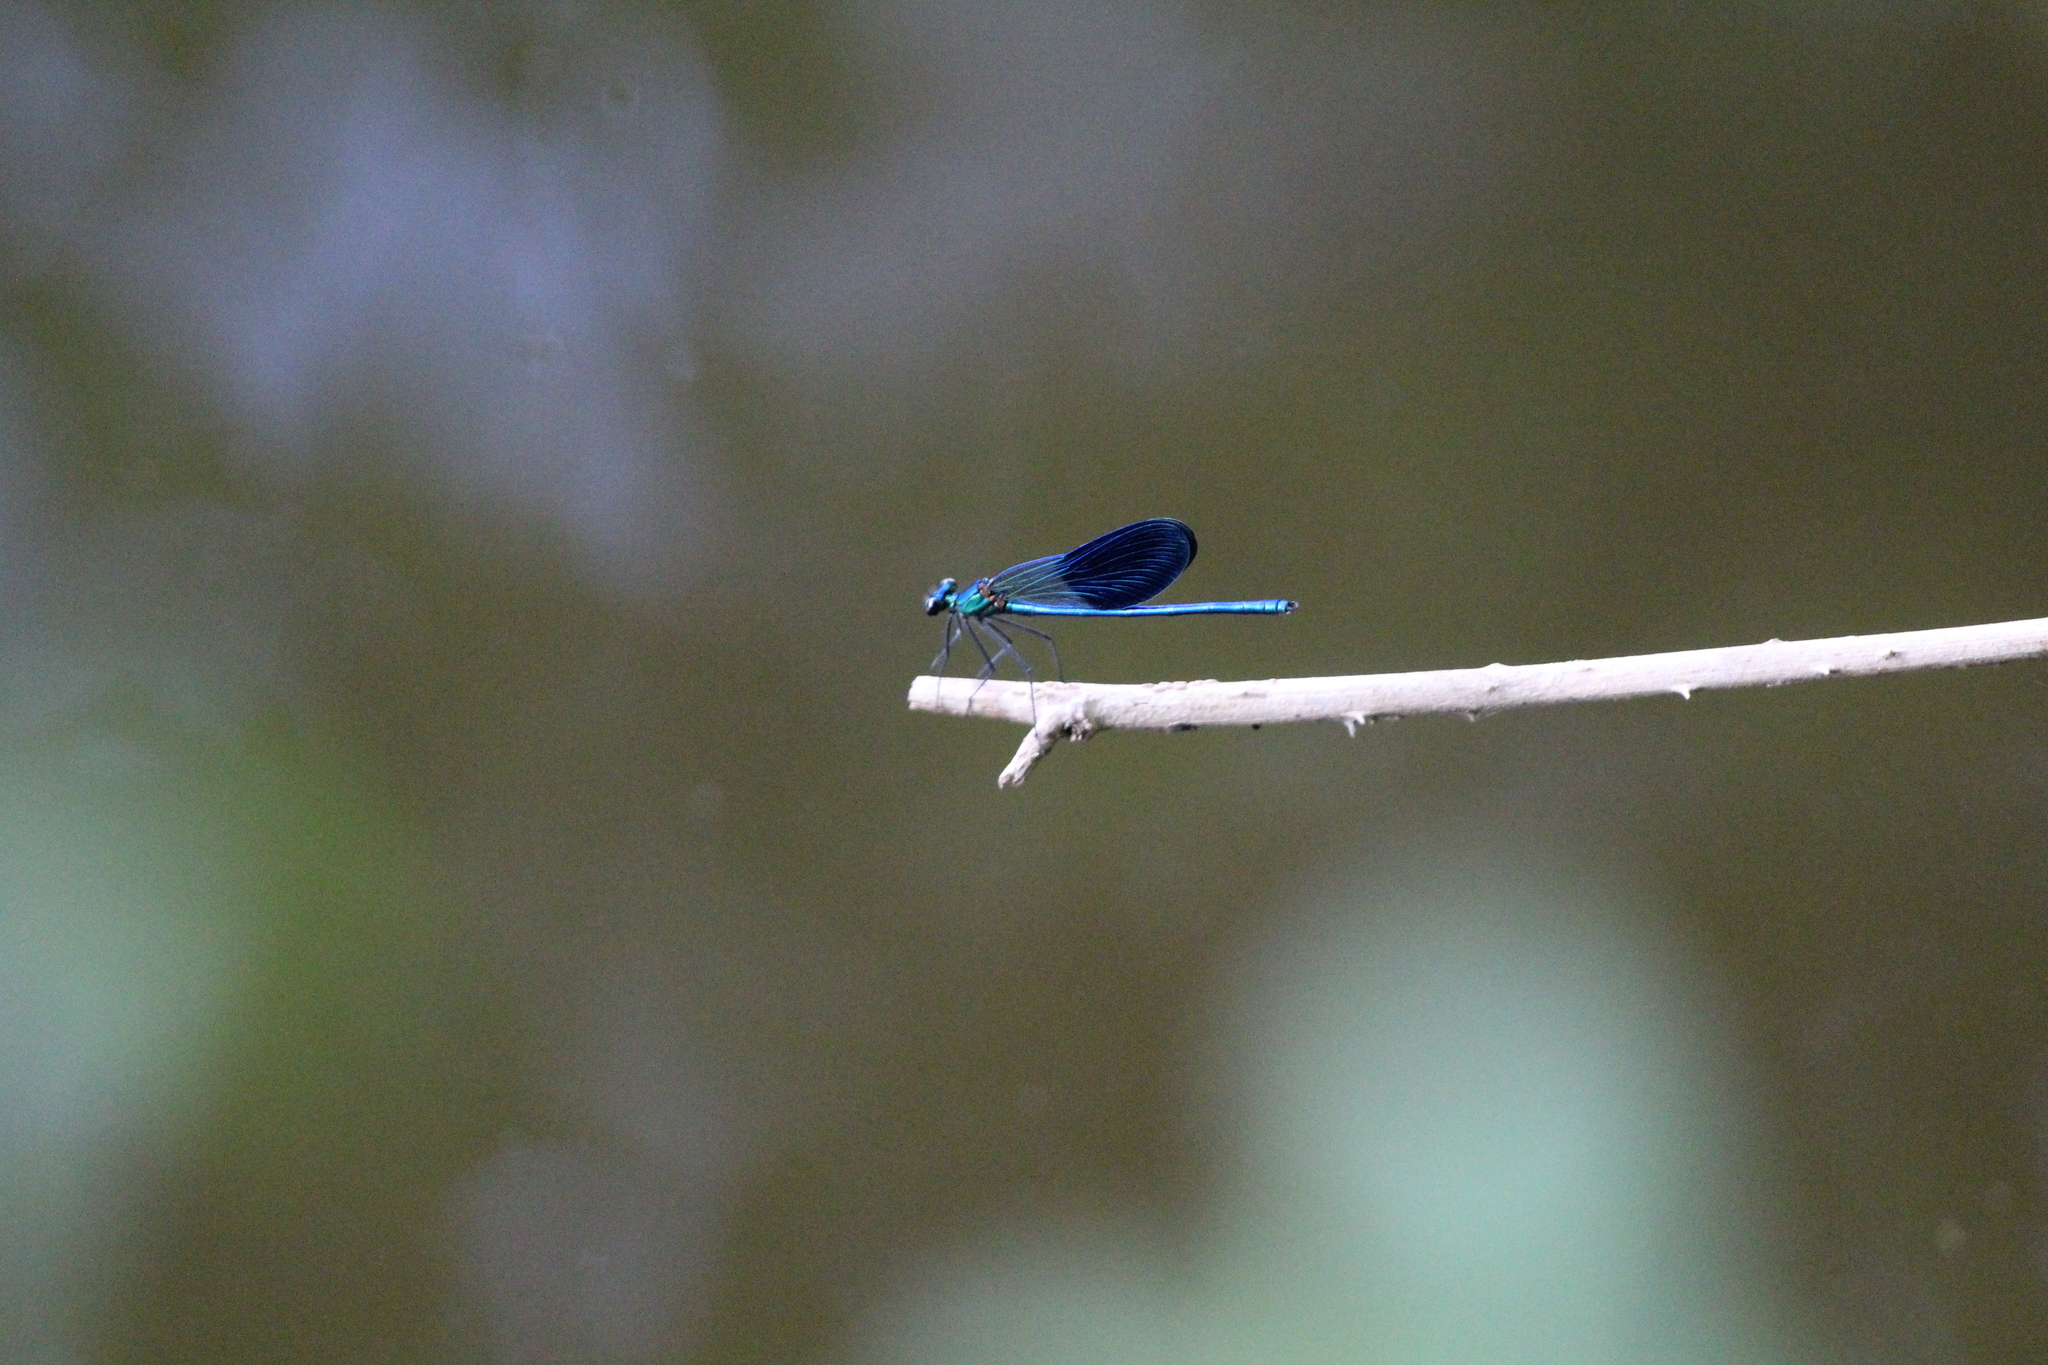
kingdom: Animalia
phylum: Arthropoda
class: Insecta
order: Odonata
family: Calopterygidae
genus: Calopteryx
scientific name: Calopteryx xanthostoma
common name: Western demoiselle
